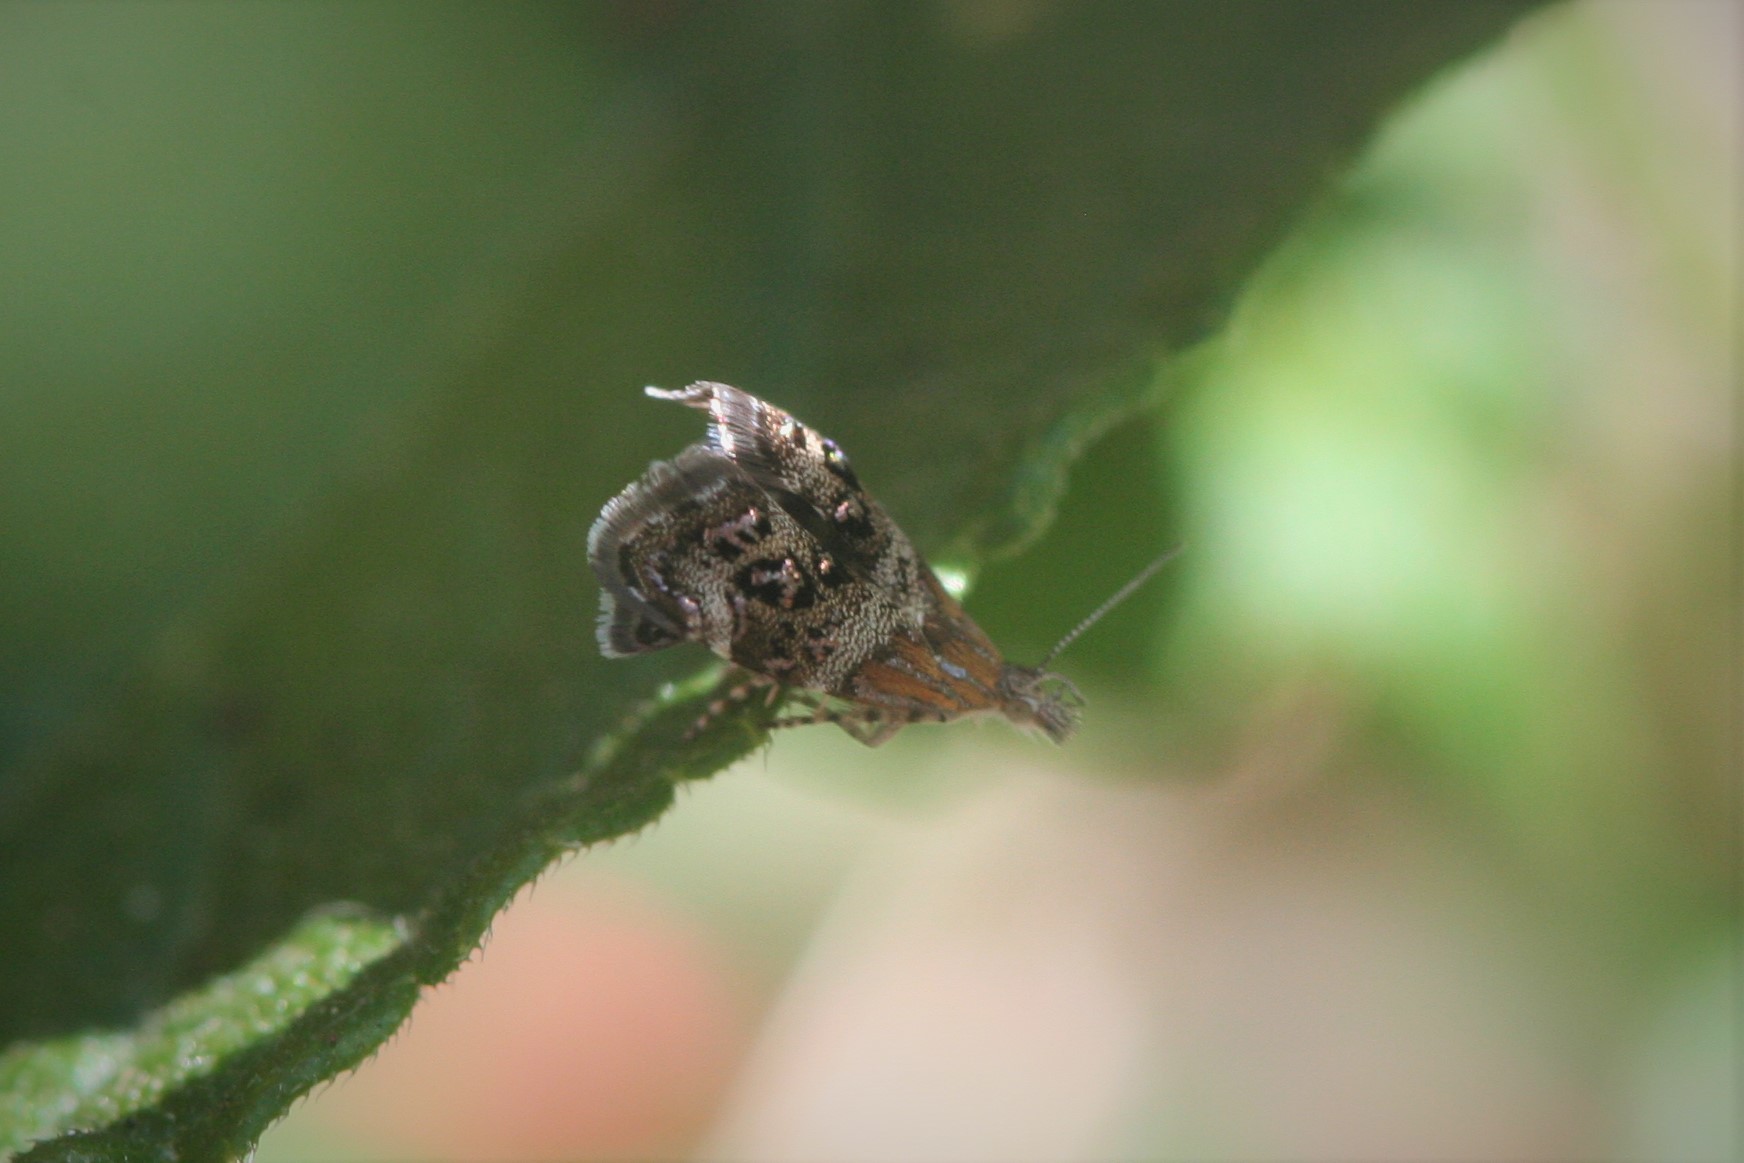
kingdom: Animalia
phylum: Arthropoda
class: Insecta
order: Lepidoptera
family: Choreutidae
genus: Tebenna
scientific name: Tebenna micalis
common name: Vagrant twitcher
